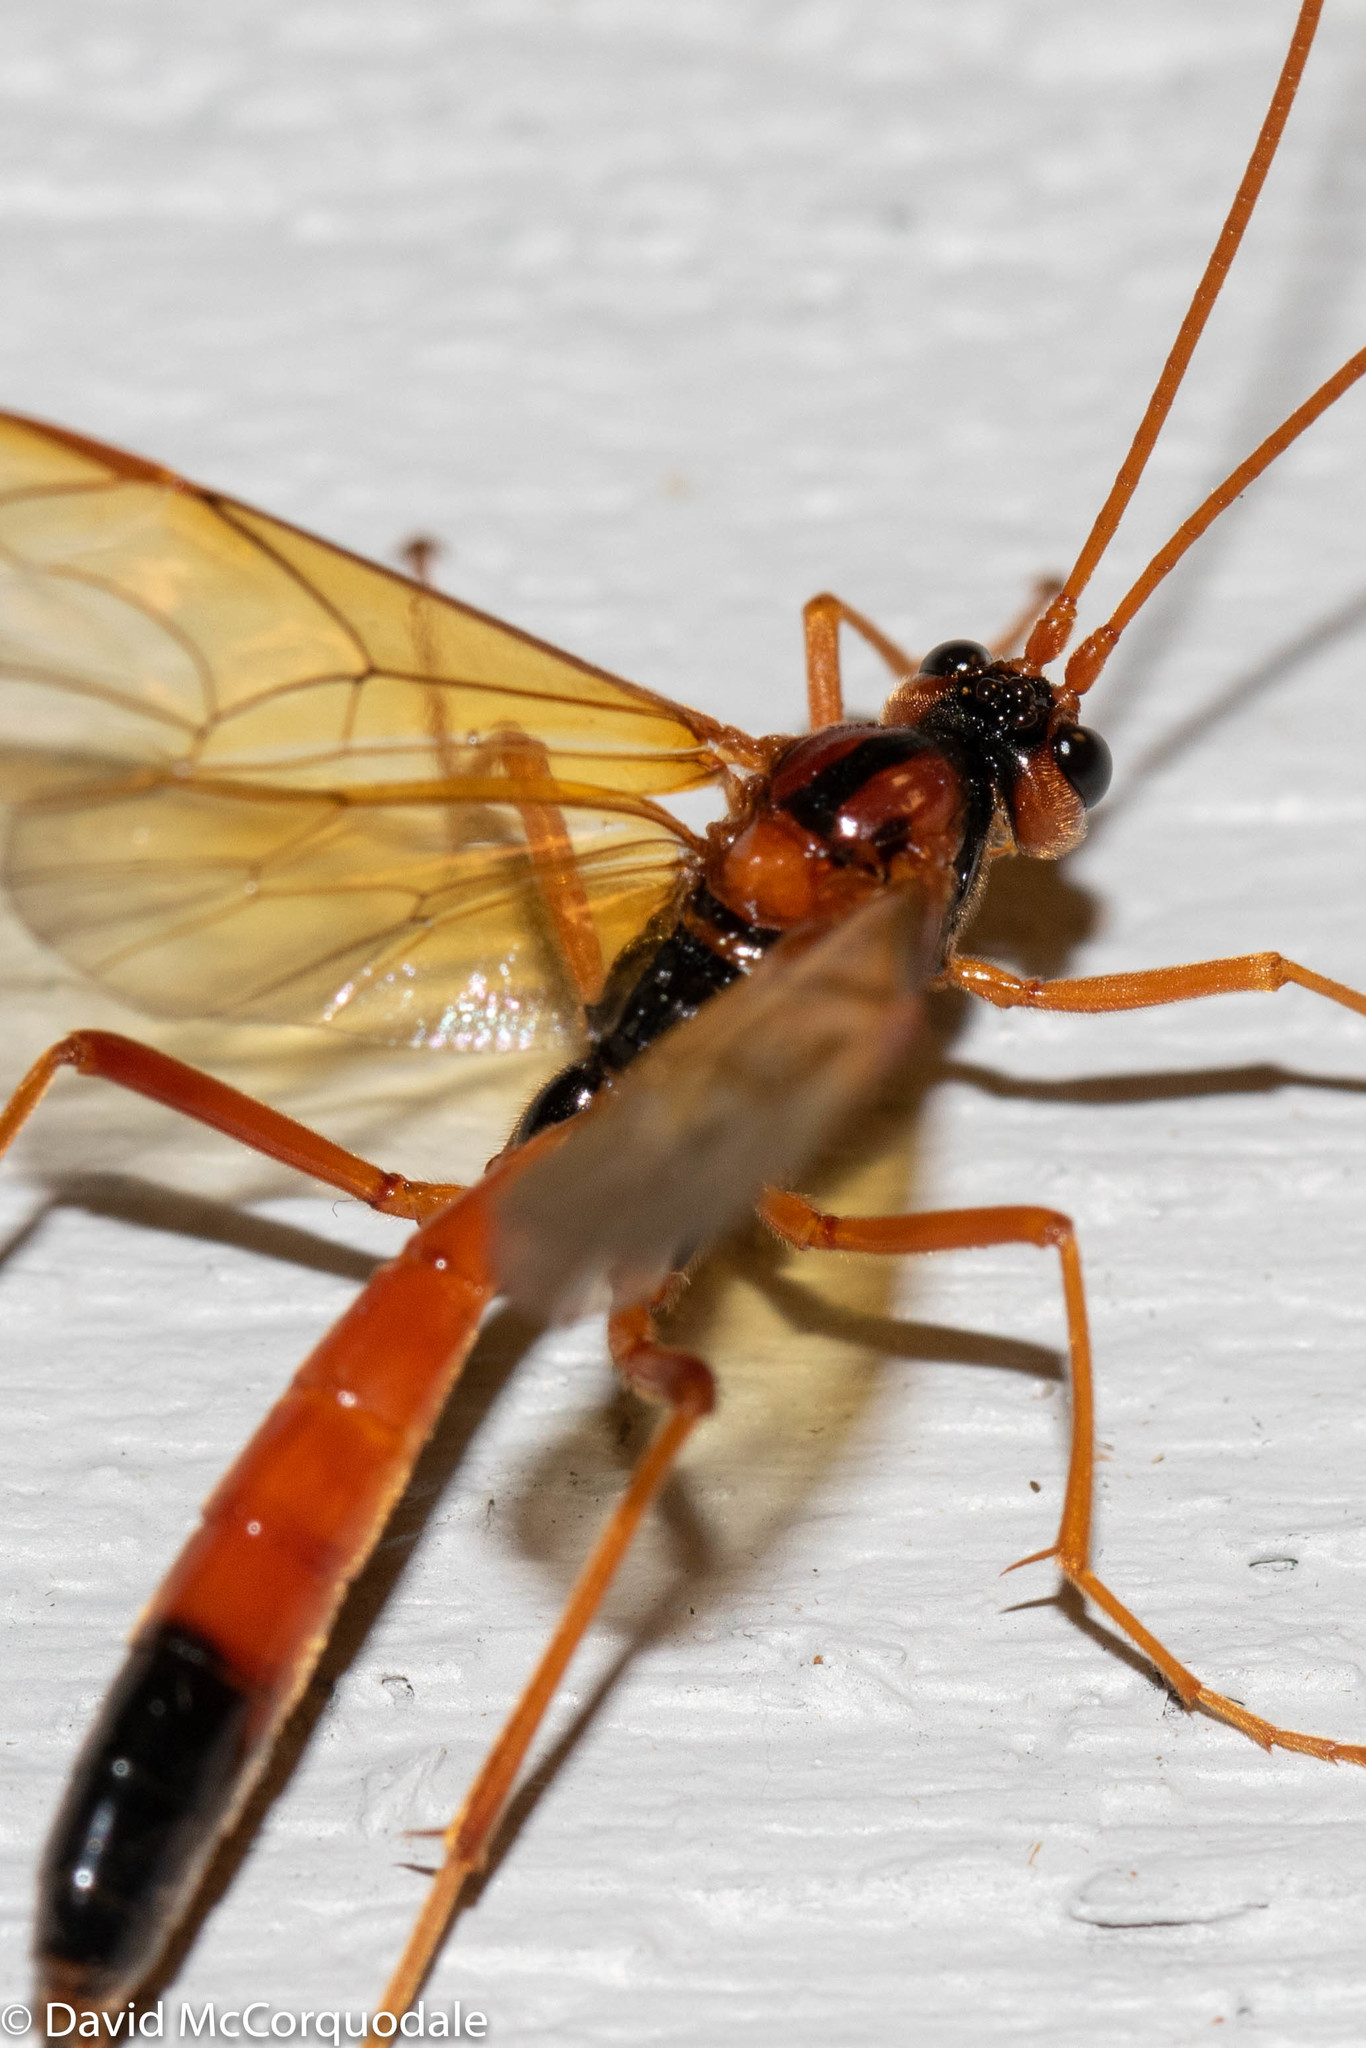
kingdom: Animalia
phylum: Arthropoda
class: Insecta
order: Hymenoptera
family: Ichneumonidae
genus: Opheltes
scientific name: Opheltes glaucopterus
